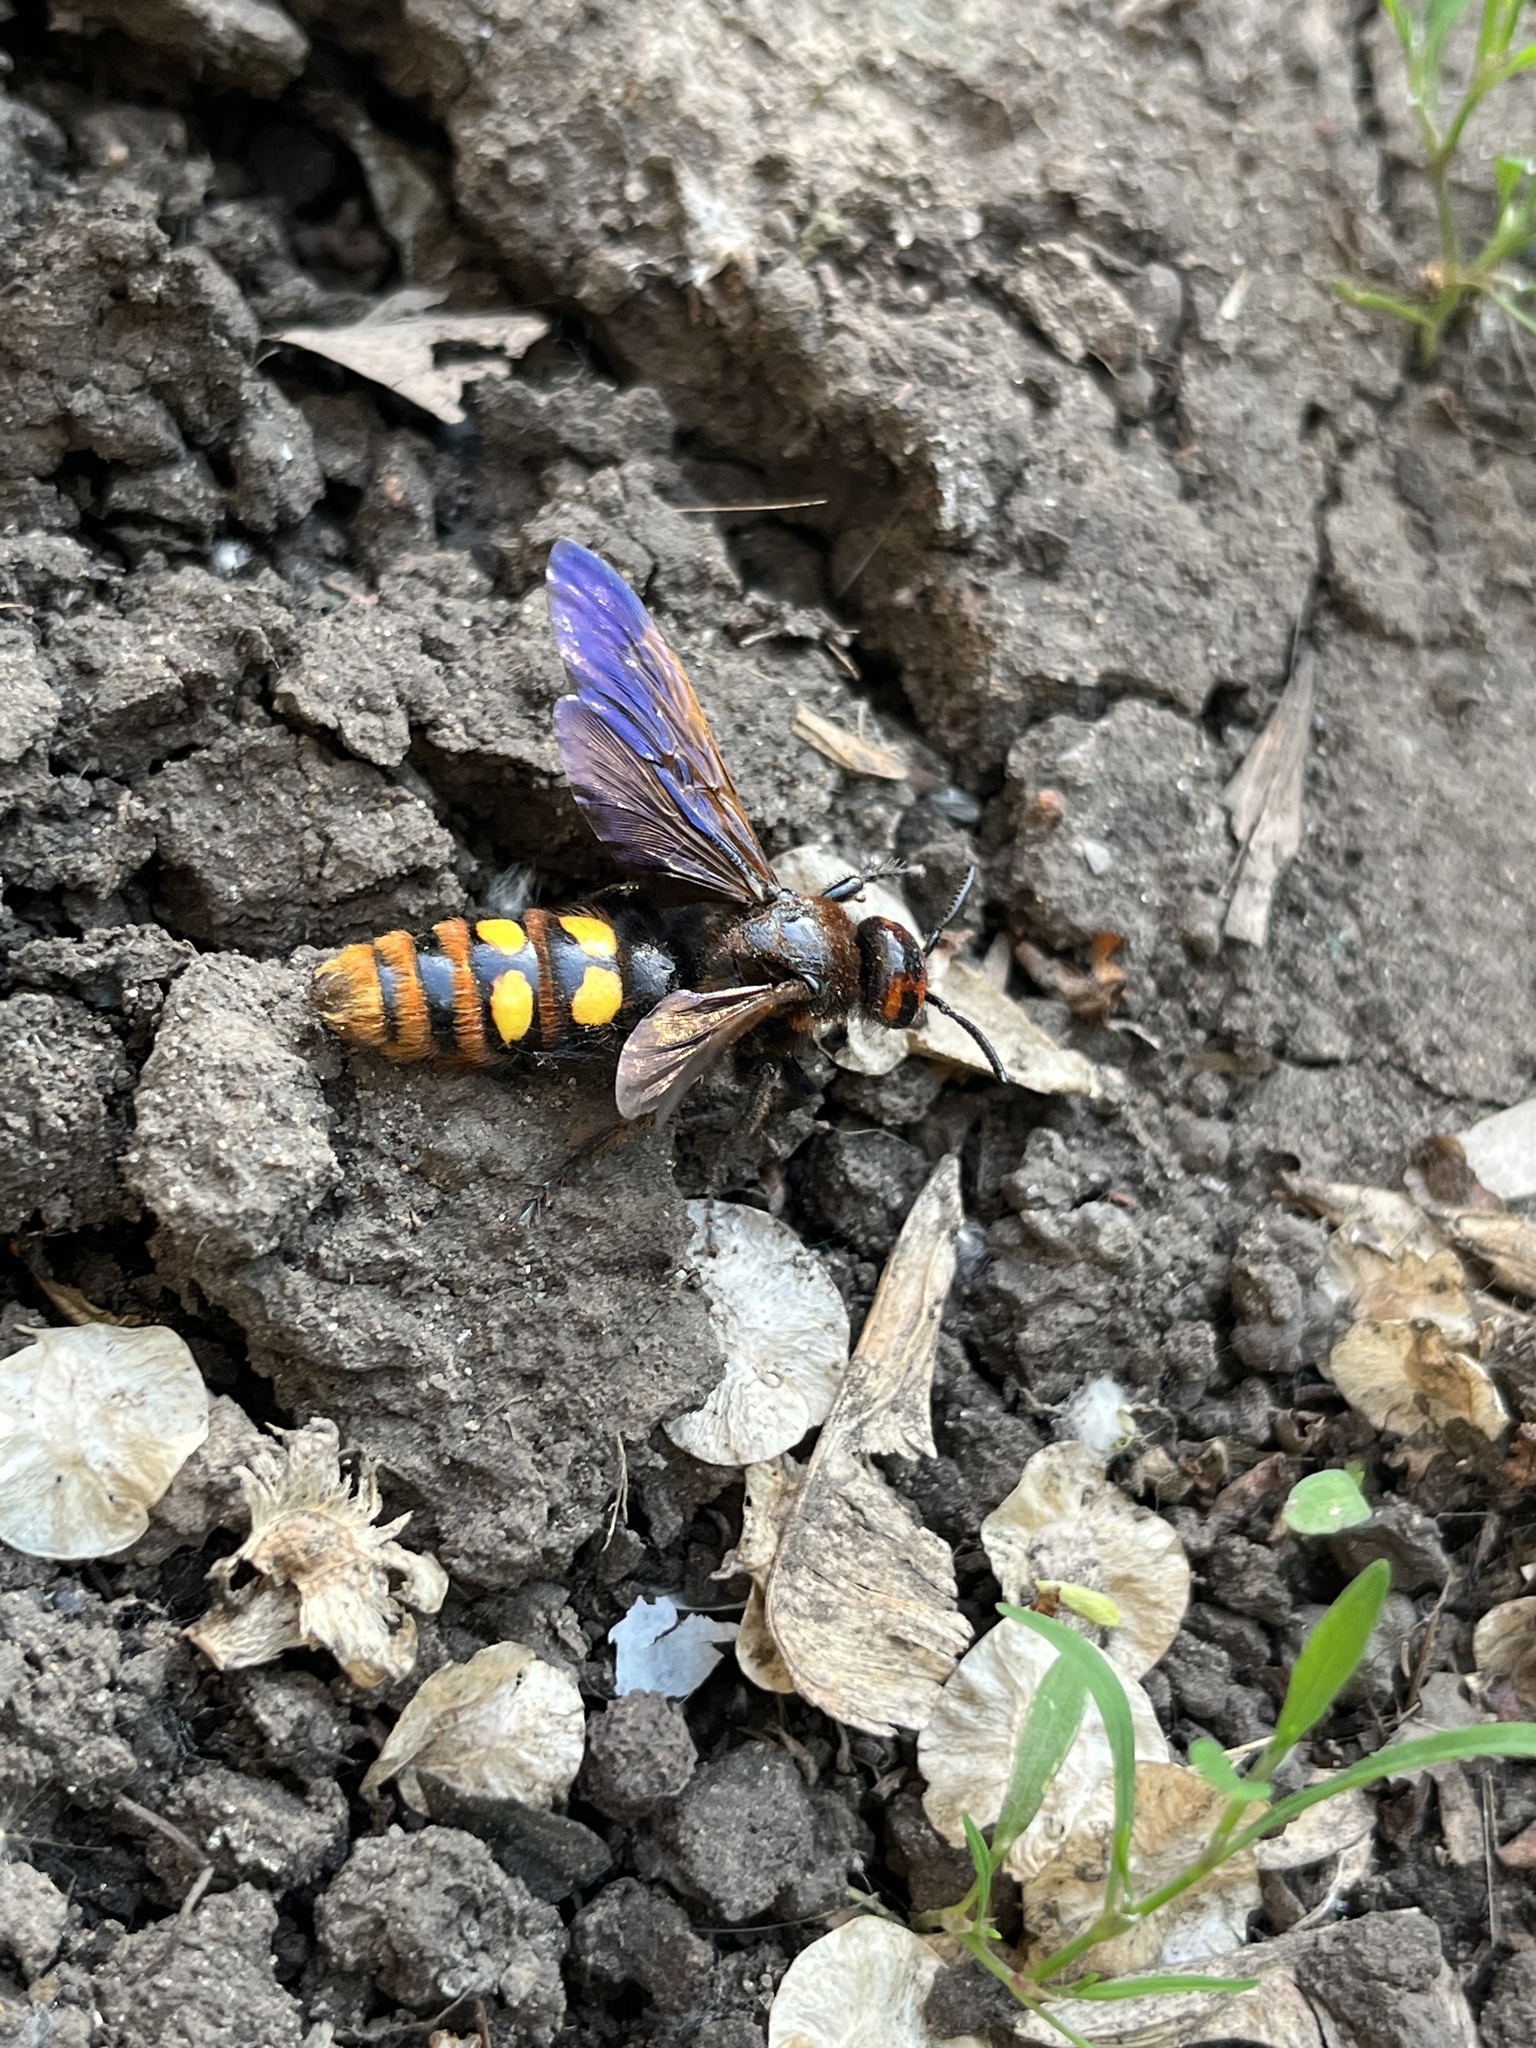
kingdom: Animalia
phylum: Arthropoda
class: Insecta
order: Hymenoptera
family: Scoliidae
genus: Megascolia
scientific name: Megascolia maculata
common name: Mammoth wasp
